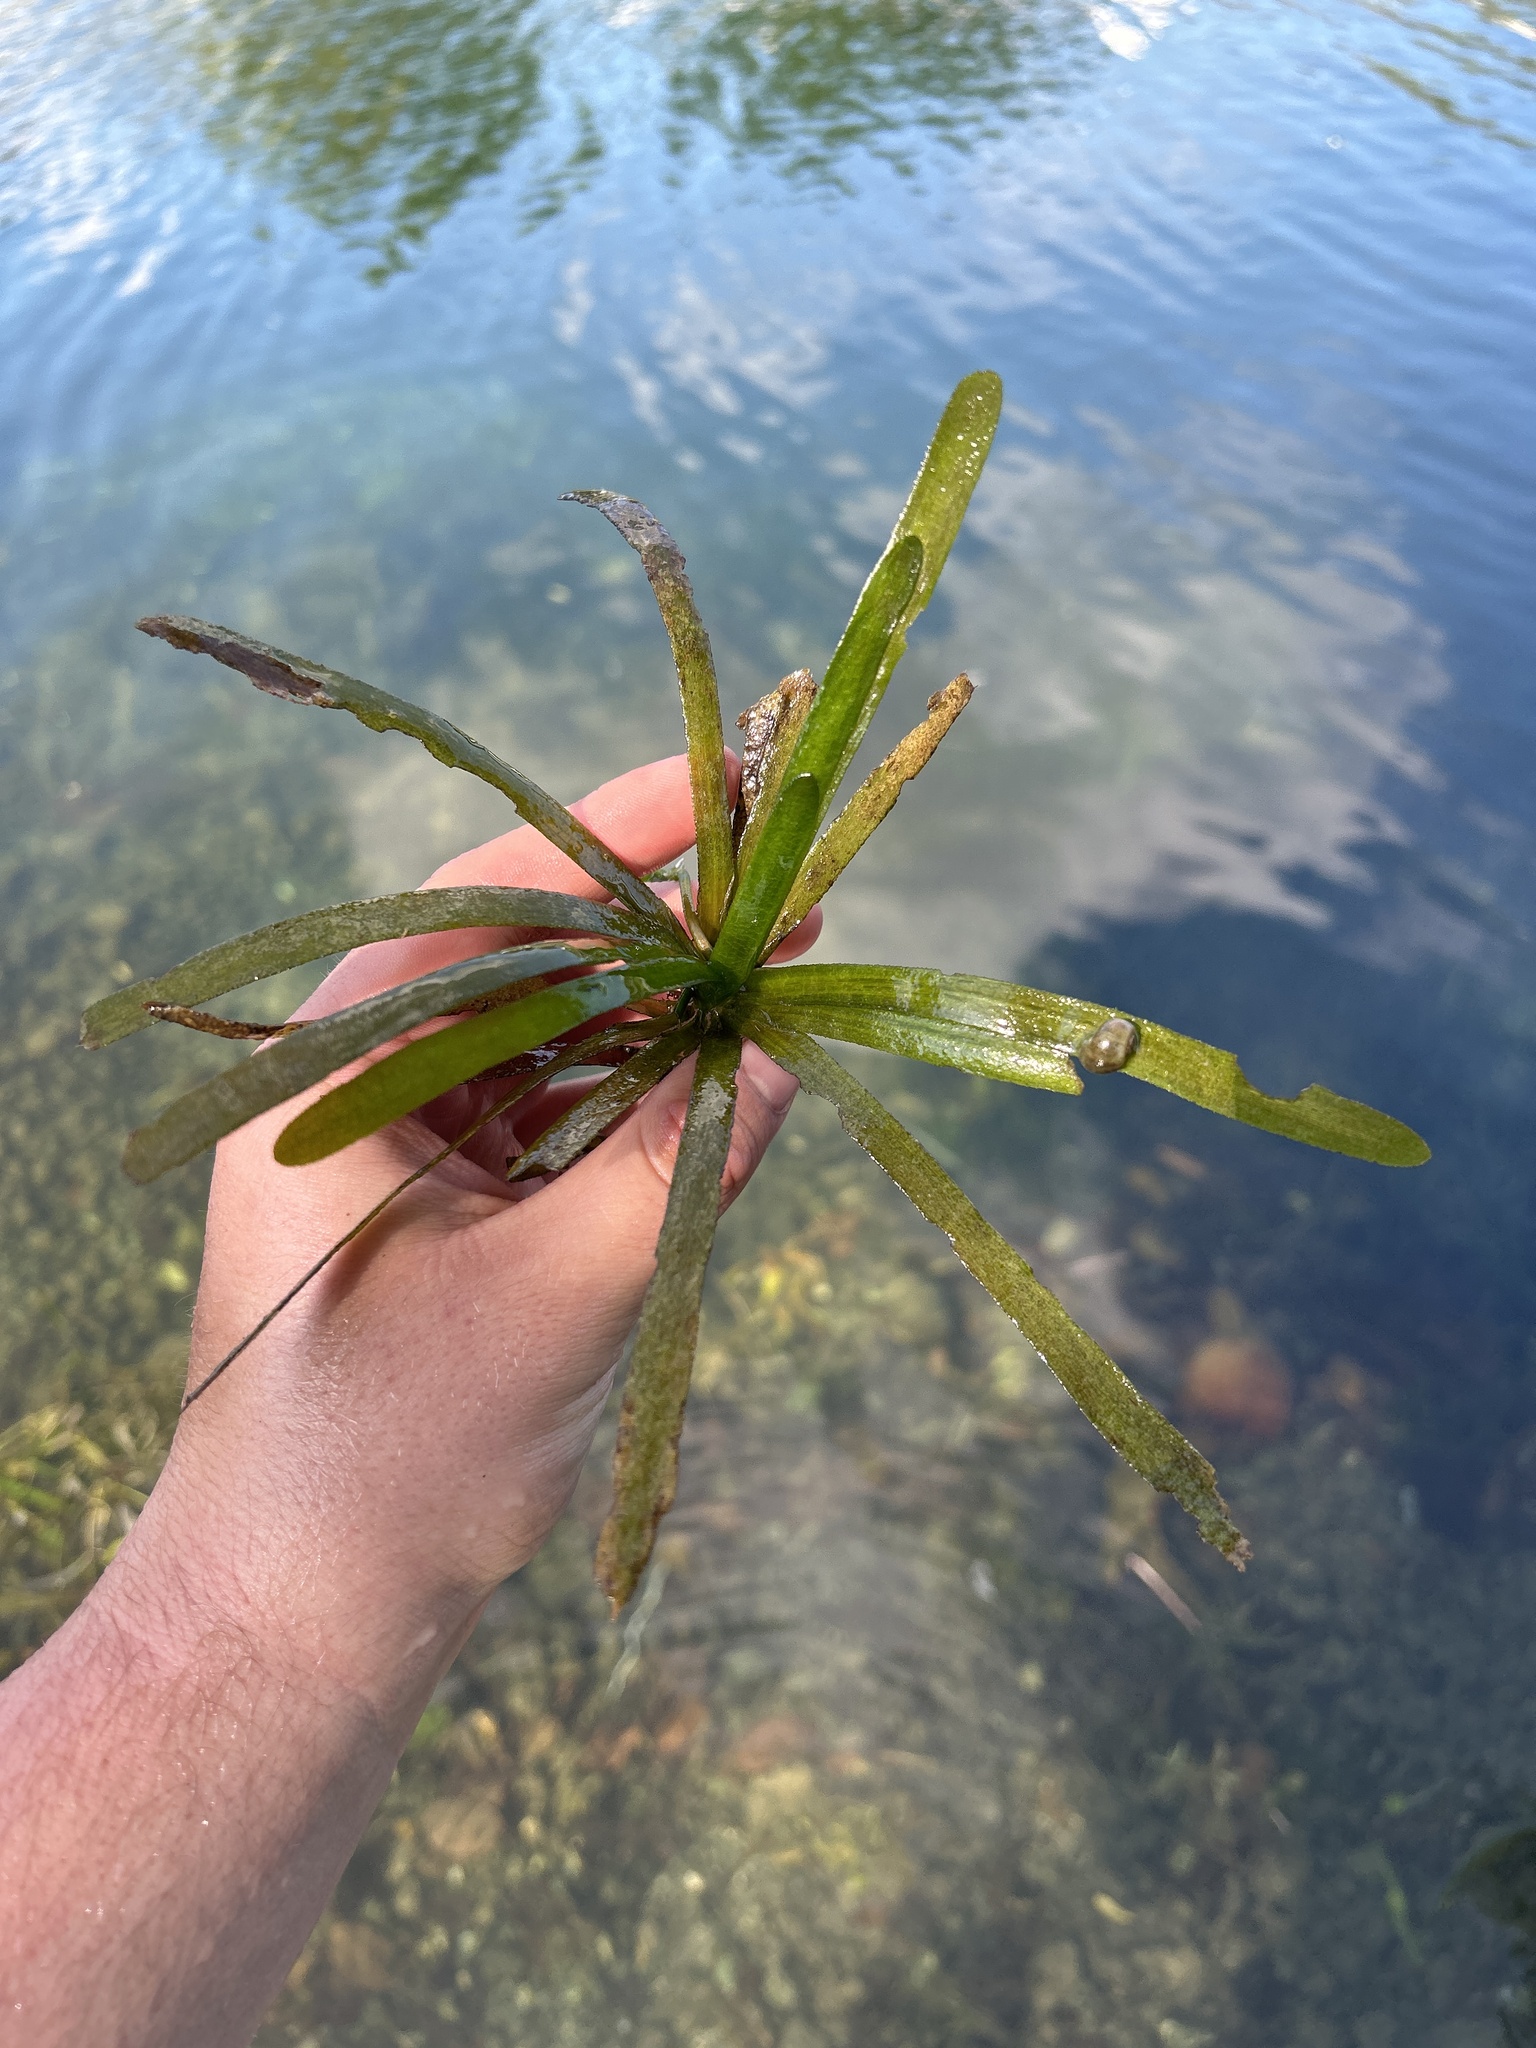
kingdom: Plantae
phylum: Tracheophyta
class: Liliopsida
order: Alismatales
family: Hydrocharitaceae
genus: Vallisneria
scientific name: Vallisneria americana
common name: American eelgrass
